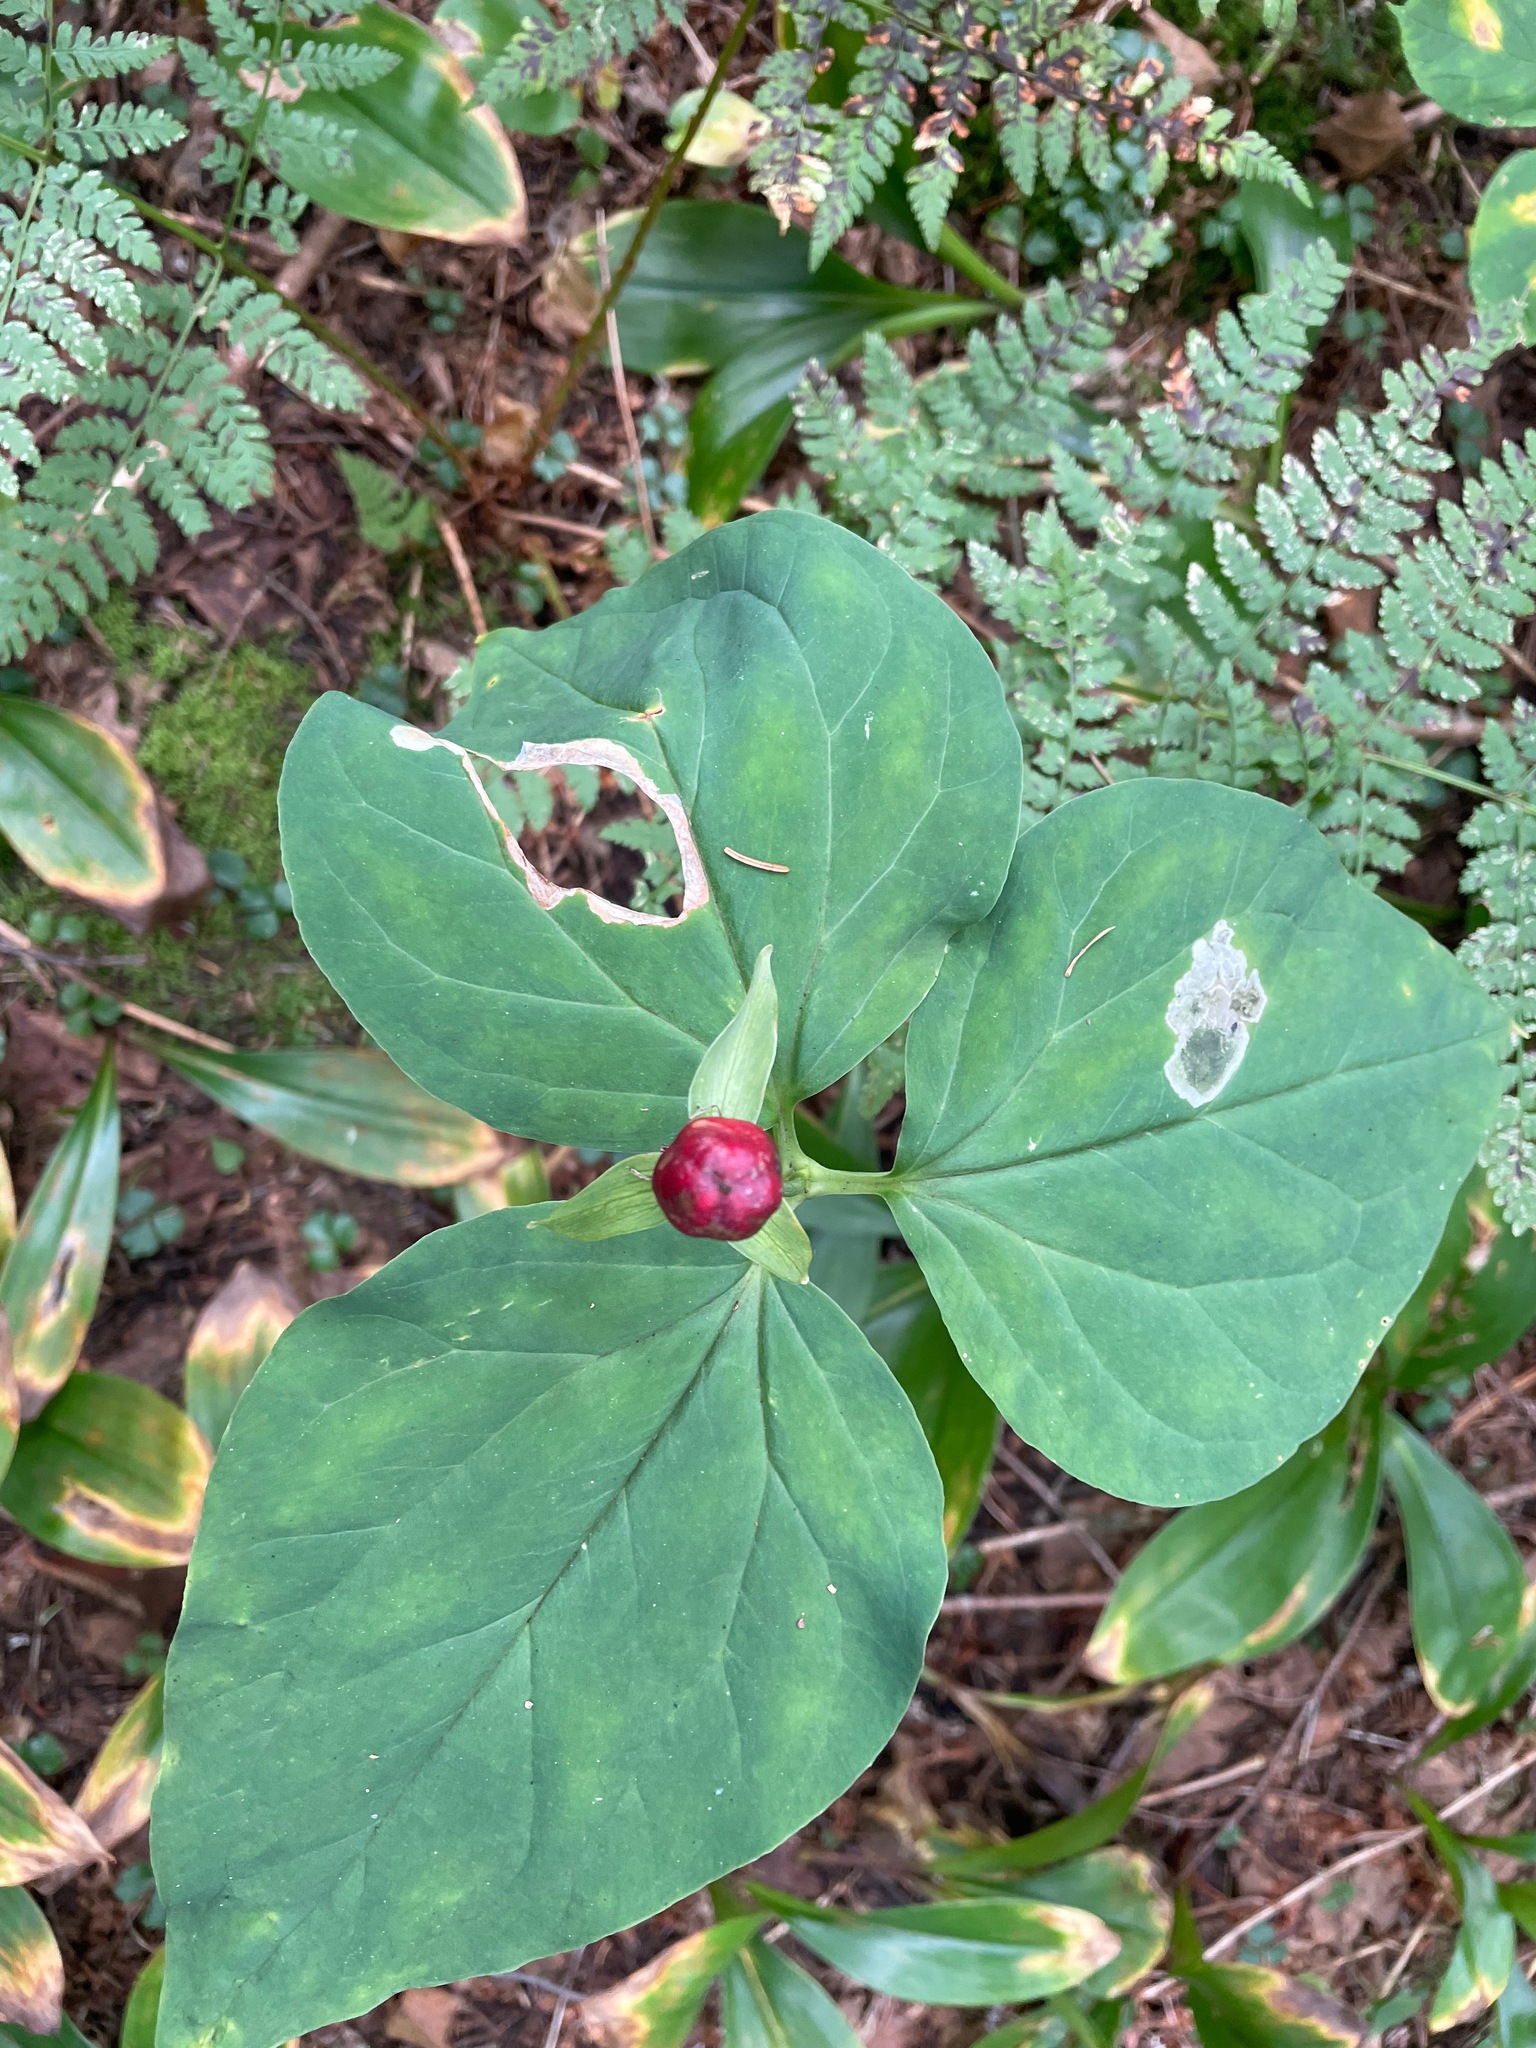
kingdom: Plantae
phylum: Tracheophyta
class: Liliopsida
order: Liliales
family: Melanthiaceae
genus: Trillium
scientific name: Trillium undulatum
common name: Paint trillium
